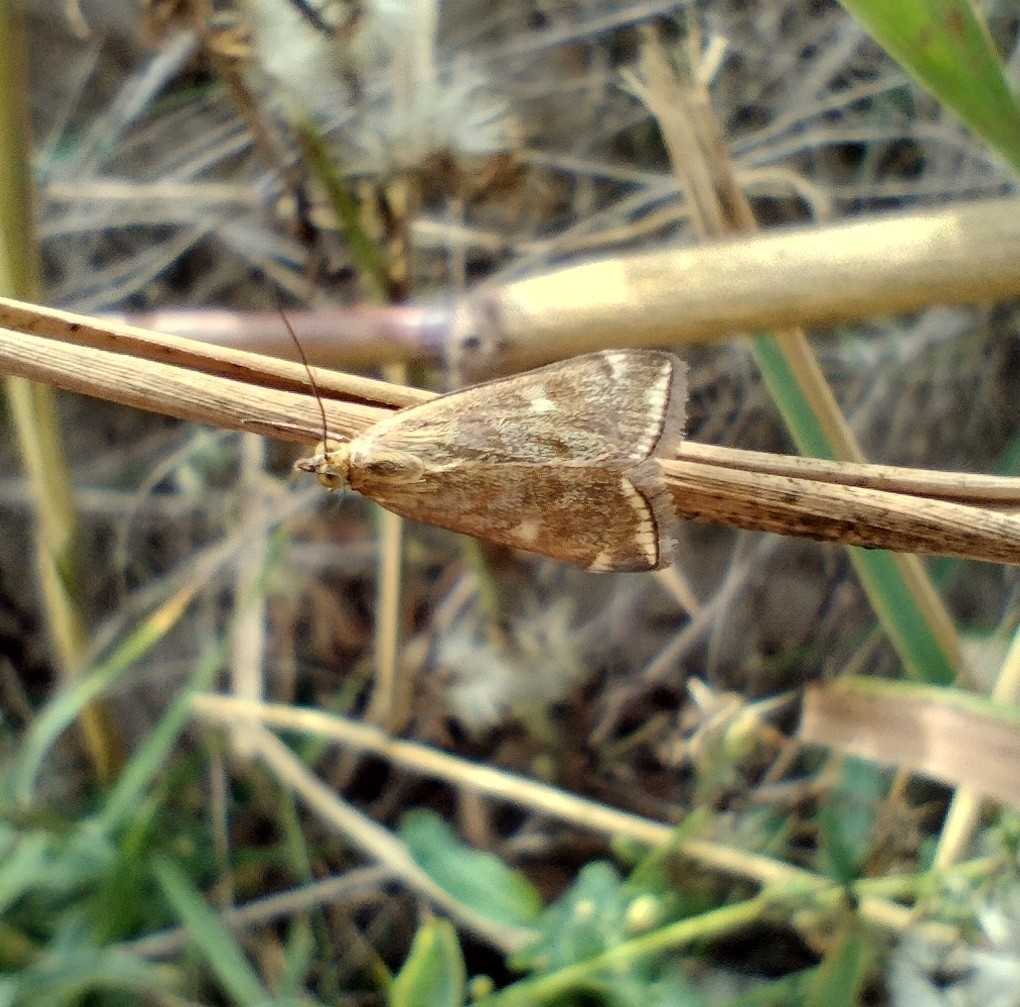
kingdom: Animalia
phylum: Arthropoda
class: Insecta
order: Lepidoptera
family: Crambidae
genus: Loxostege
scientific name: Loxostege sticticalis
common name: Crambid moth
